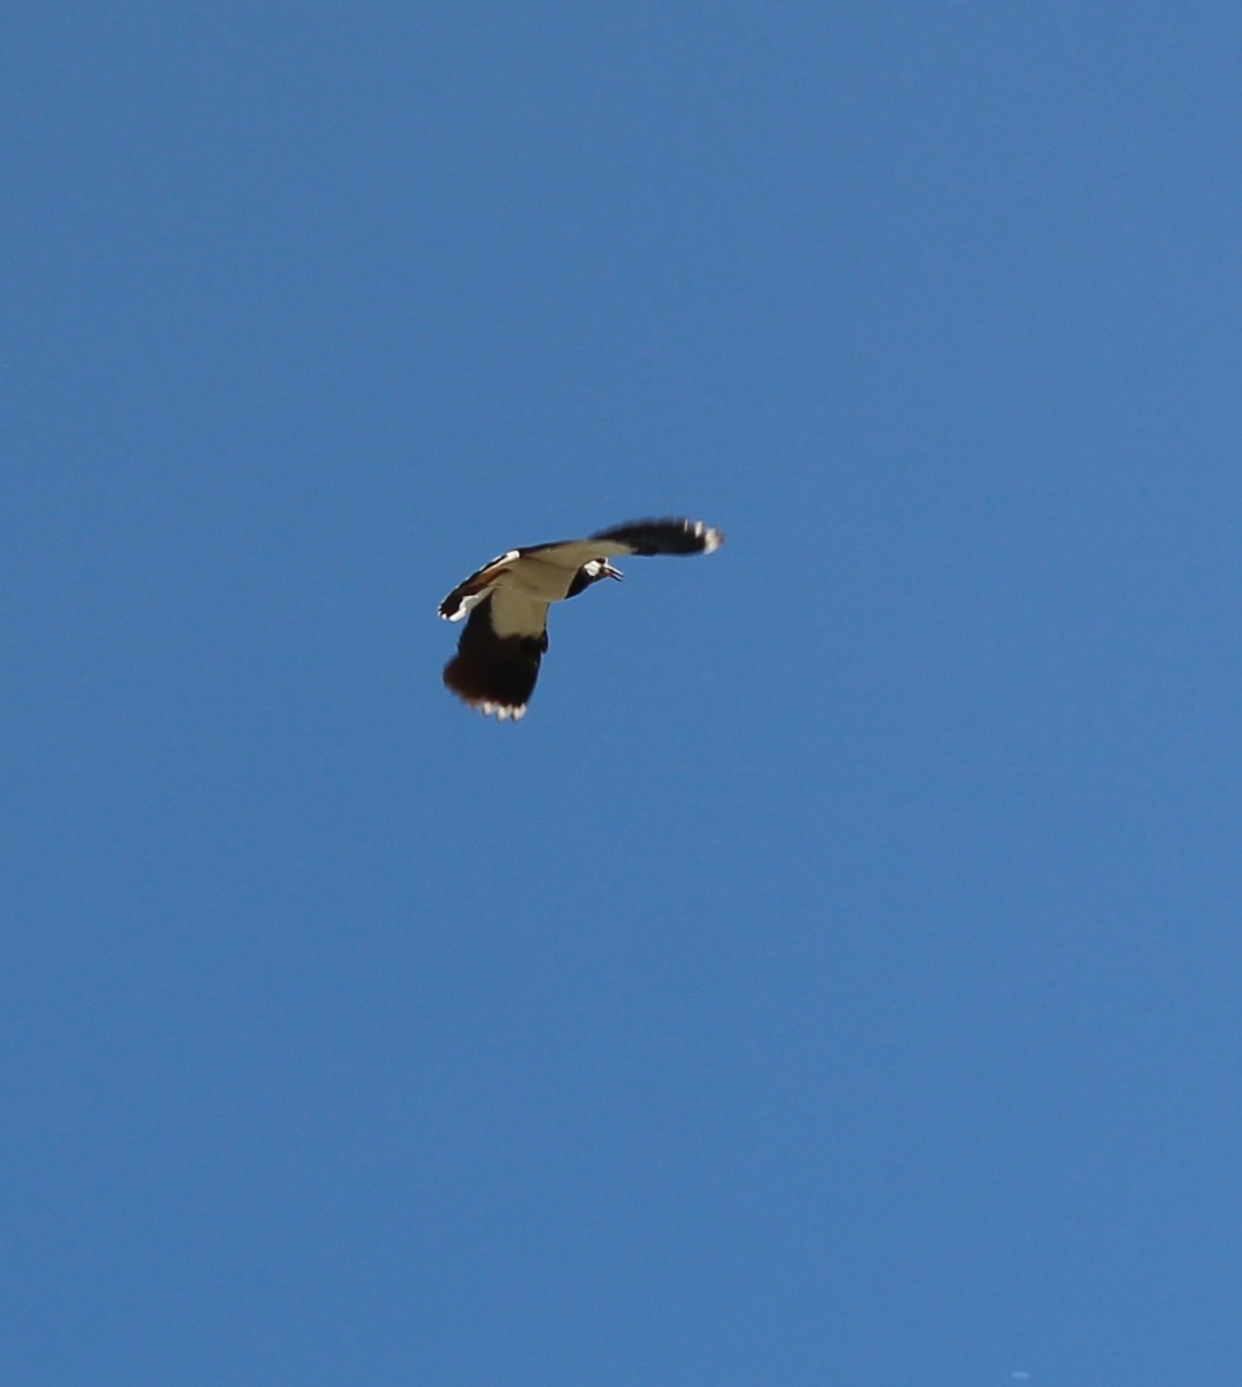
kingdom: Animalia
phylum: Chordata
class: Aves
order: Charadriiformes
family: Charadriidae
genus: Vanellus
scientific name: Vanellus vanellus
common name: Northern lapwing
